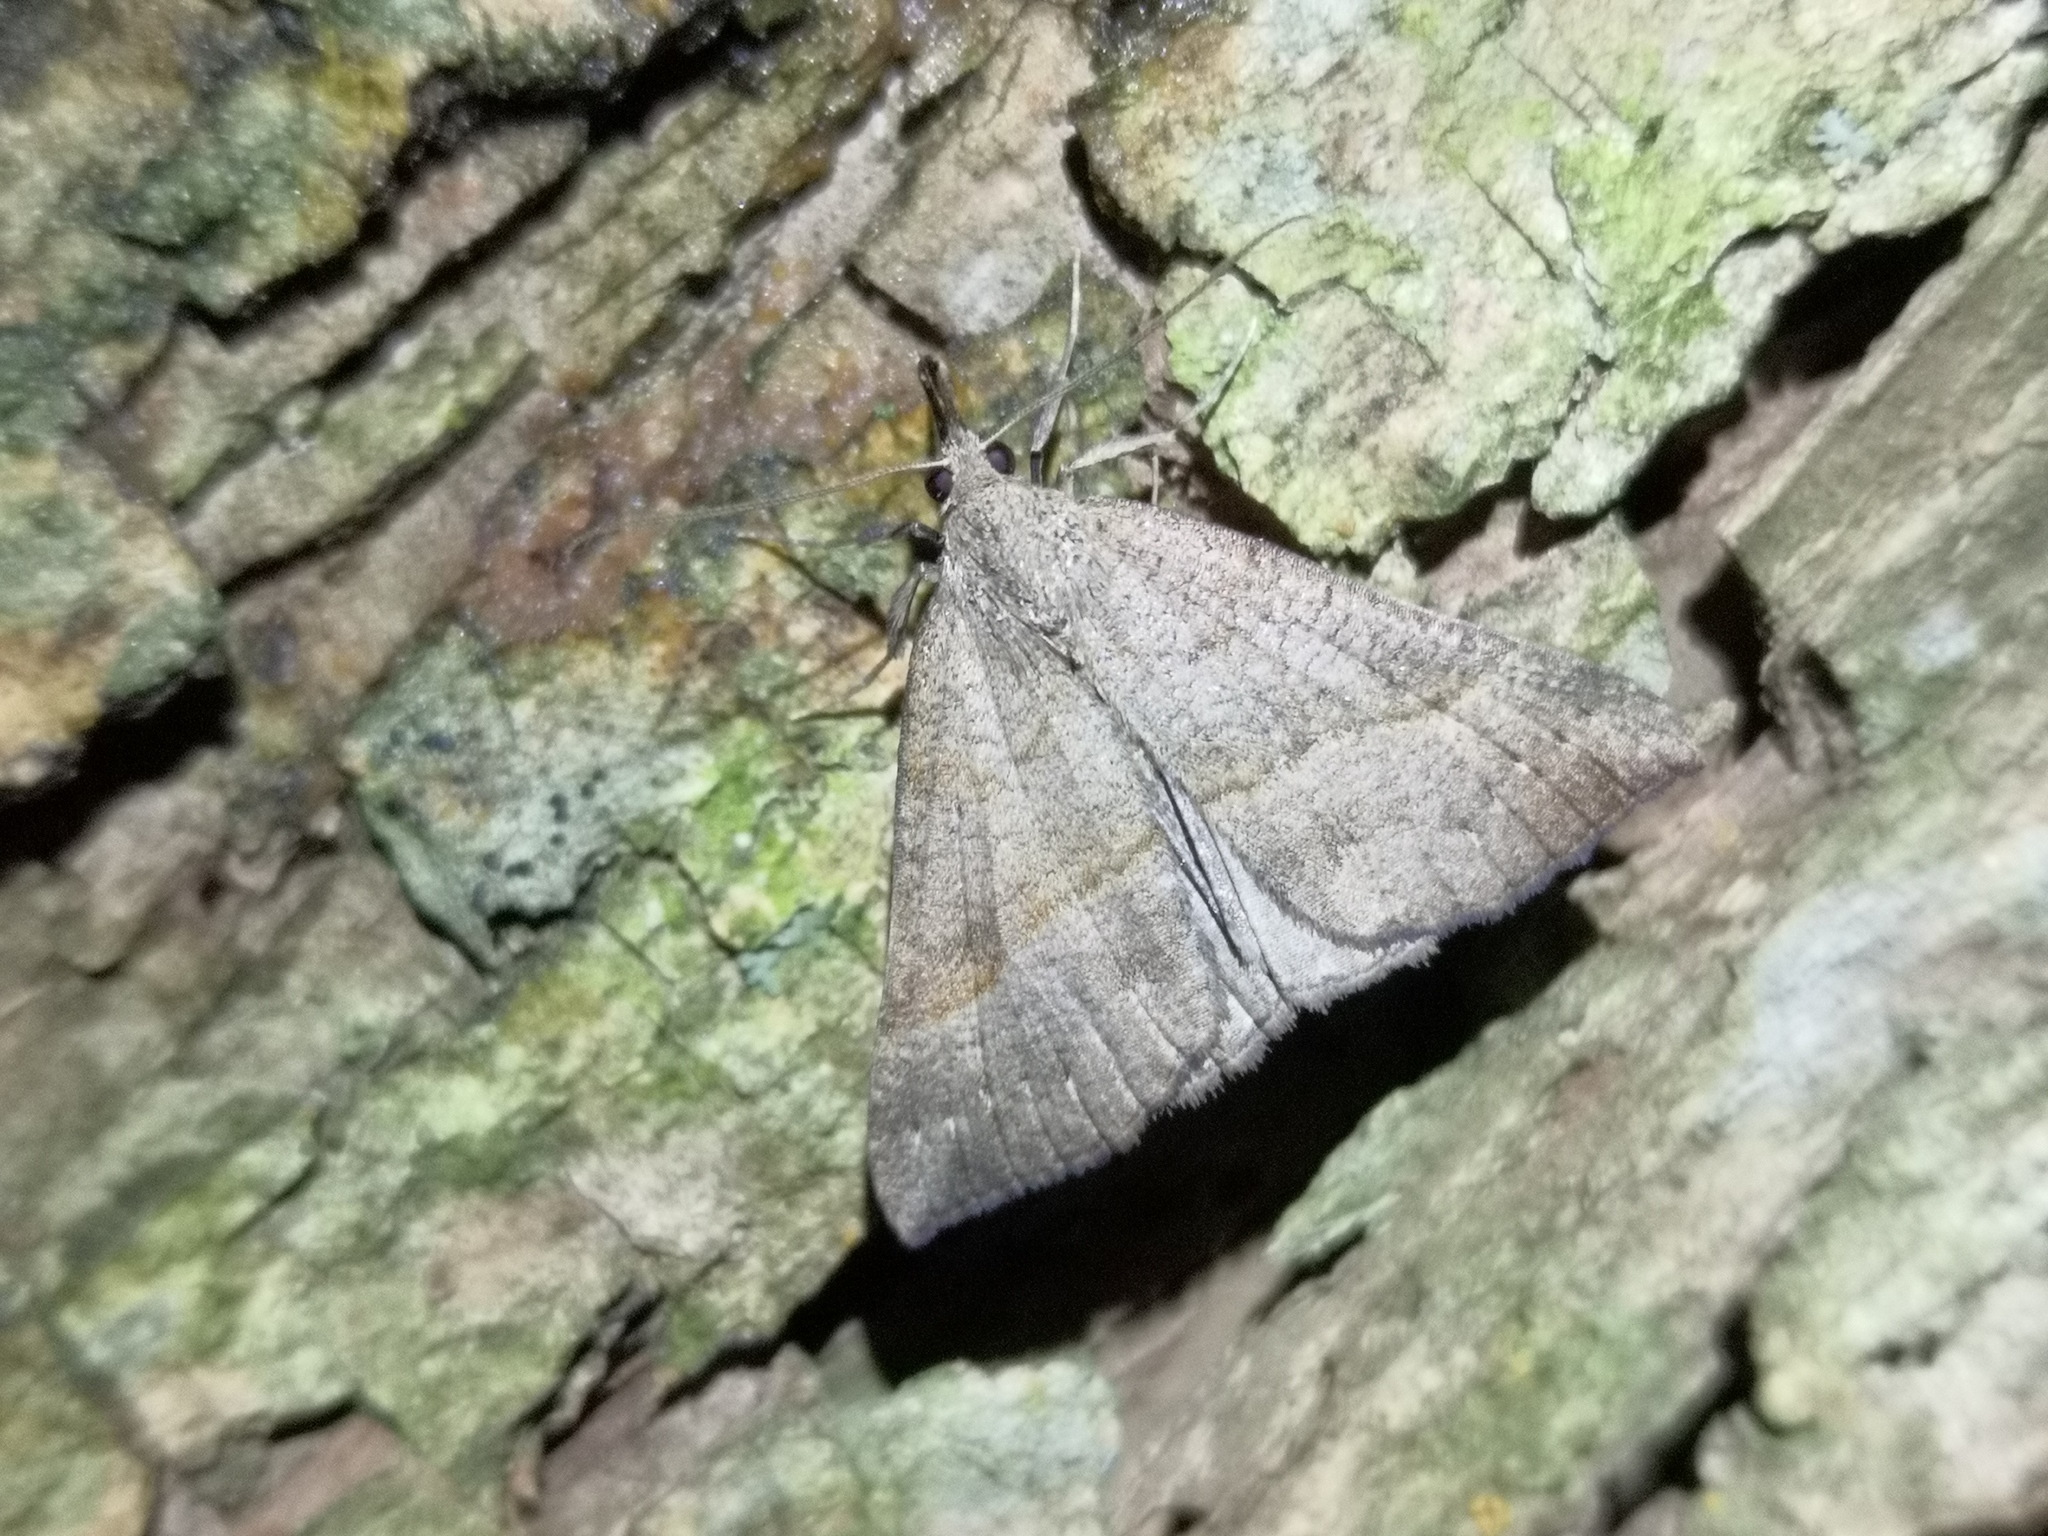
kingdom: Animalia
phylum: Arthropoda
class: Insecta
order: Lepidoptera
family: Erebidae
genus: Hypena
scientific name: Hypena proboscidalis
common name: Snout
